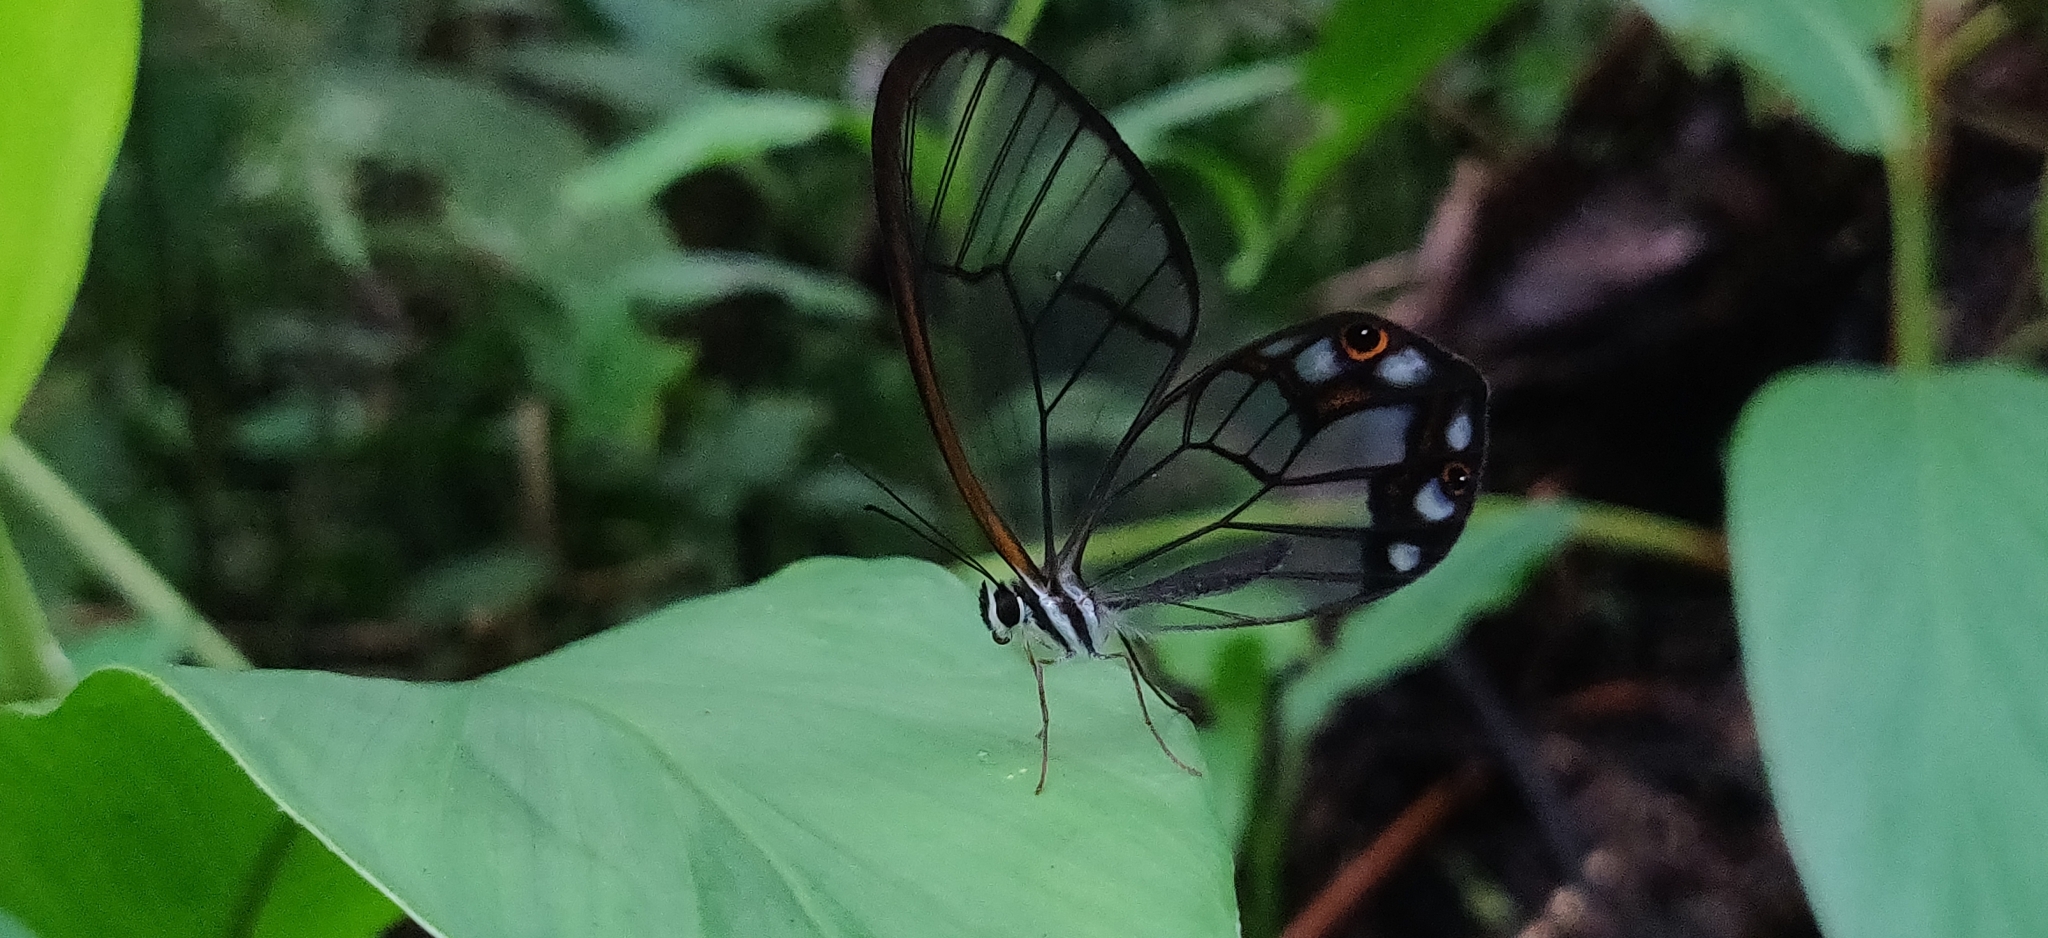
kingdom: Animalia
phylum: Arthropoda
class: Insecta
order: Lepidoptera
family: Nymphalidae
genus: Pseudohaetera
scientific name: Pseudohaetera hypaesia
